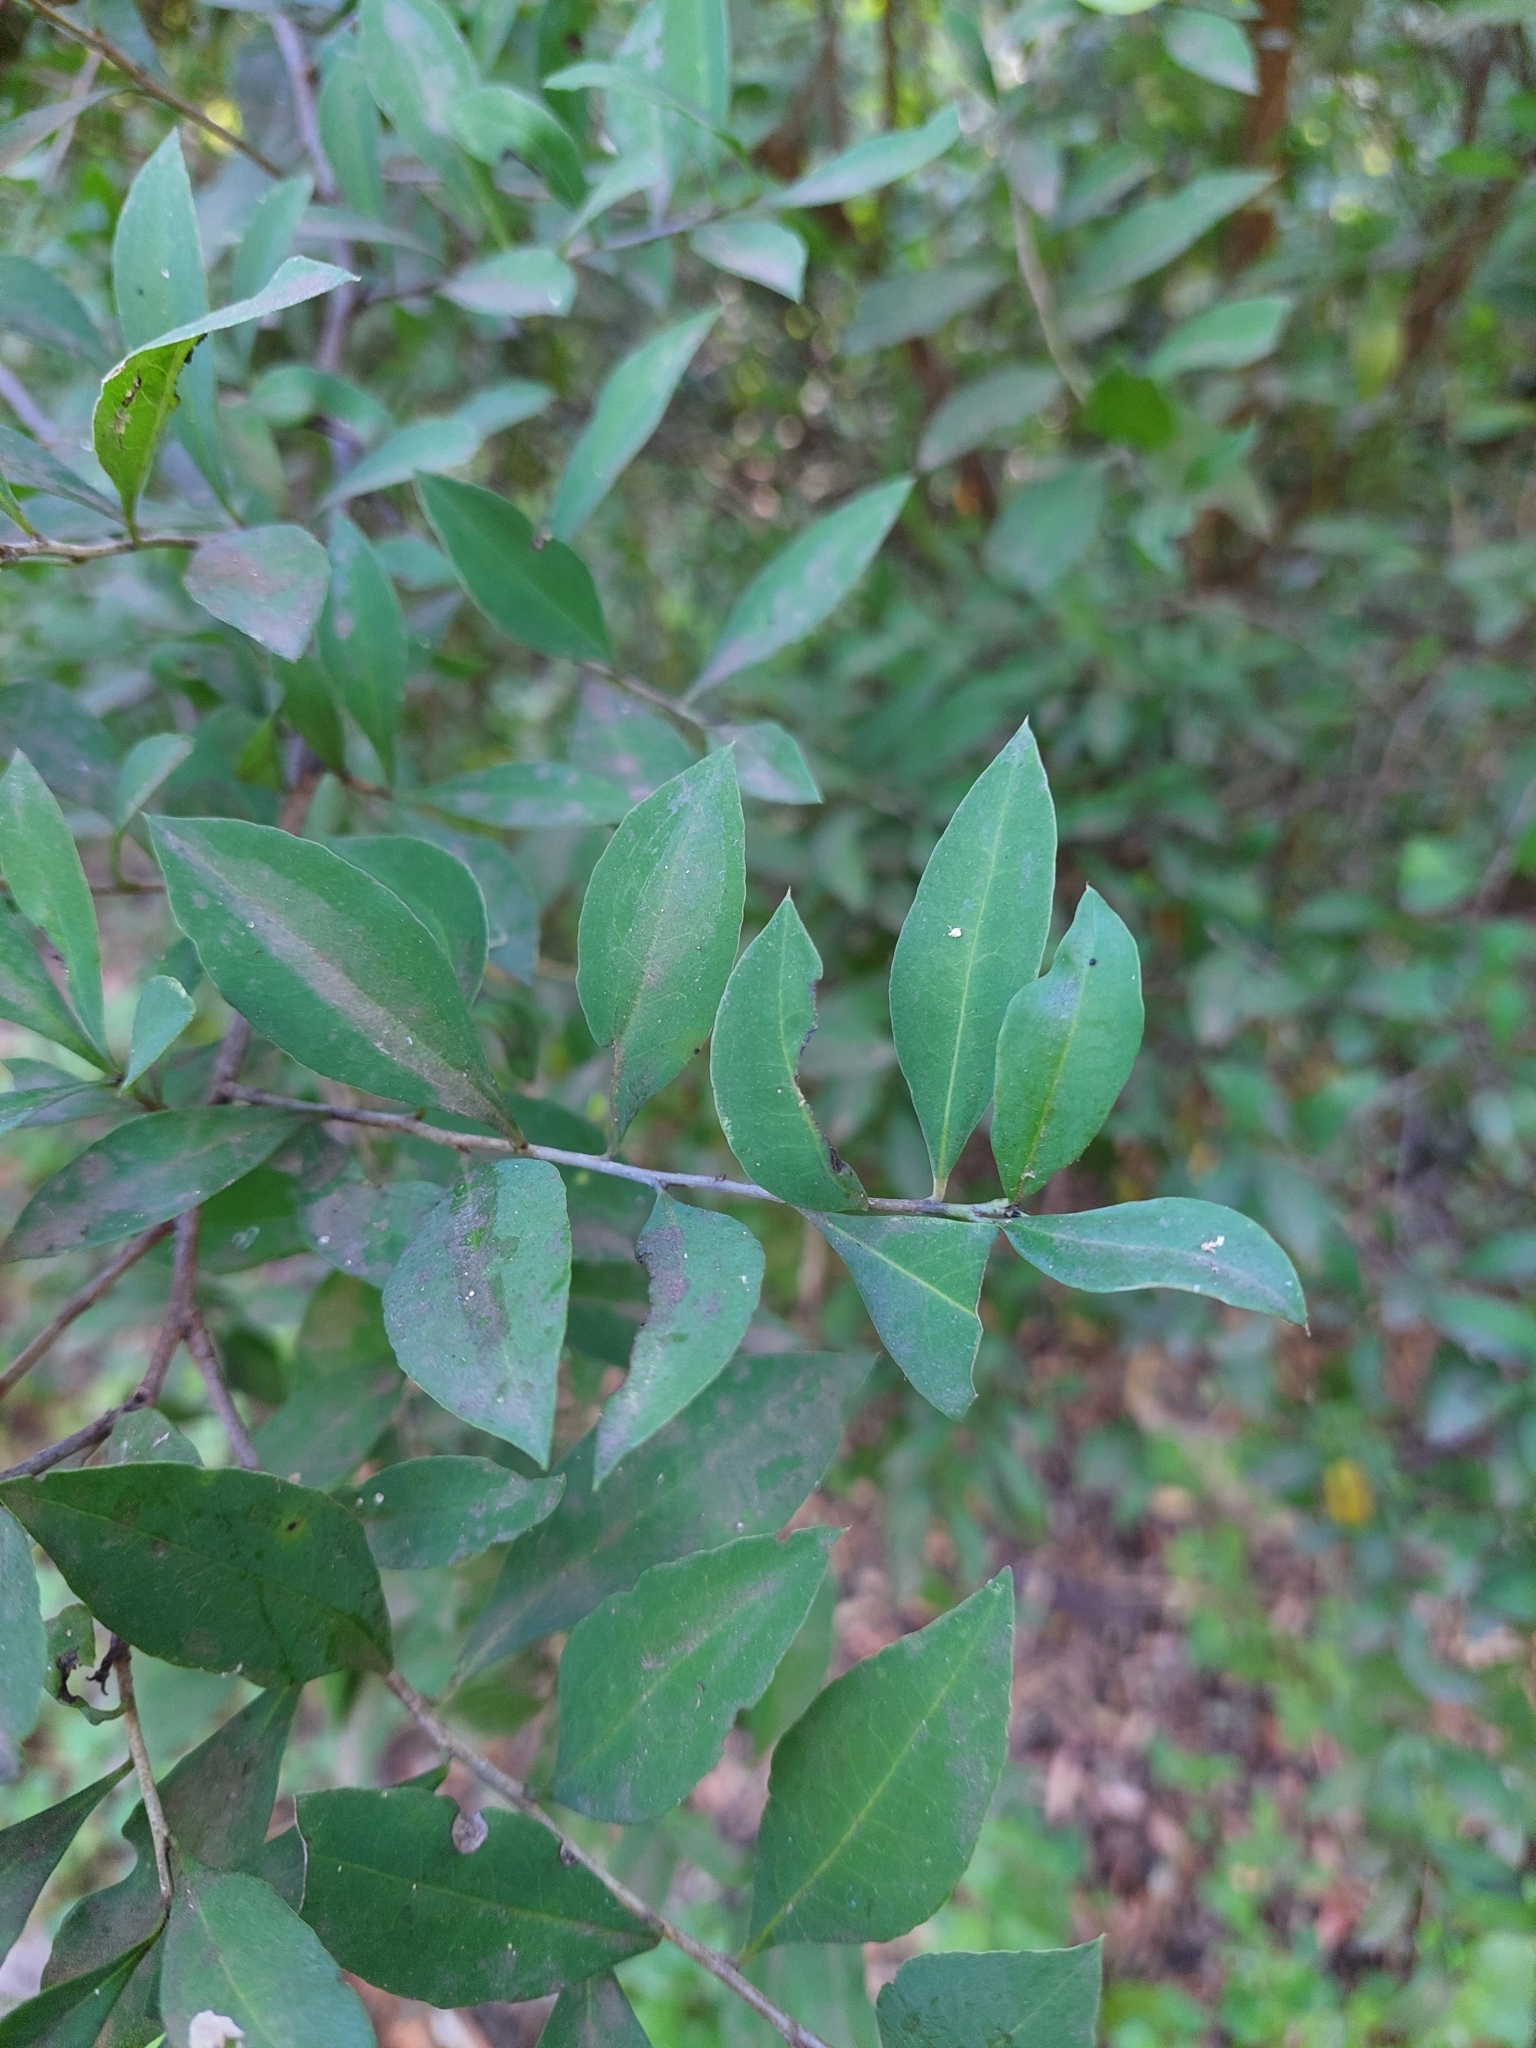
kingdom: Plantae
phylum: Tracheophyta
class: Magnoliopsida
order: Caryophyllales
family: Achatocarpaceae
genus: Achatocarpus
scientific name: Achatocarpus praecox
